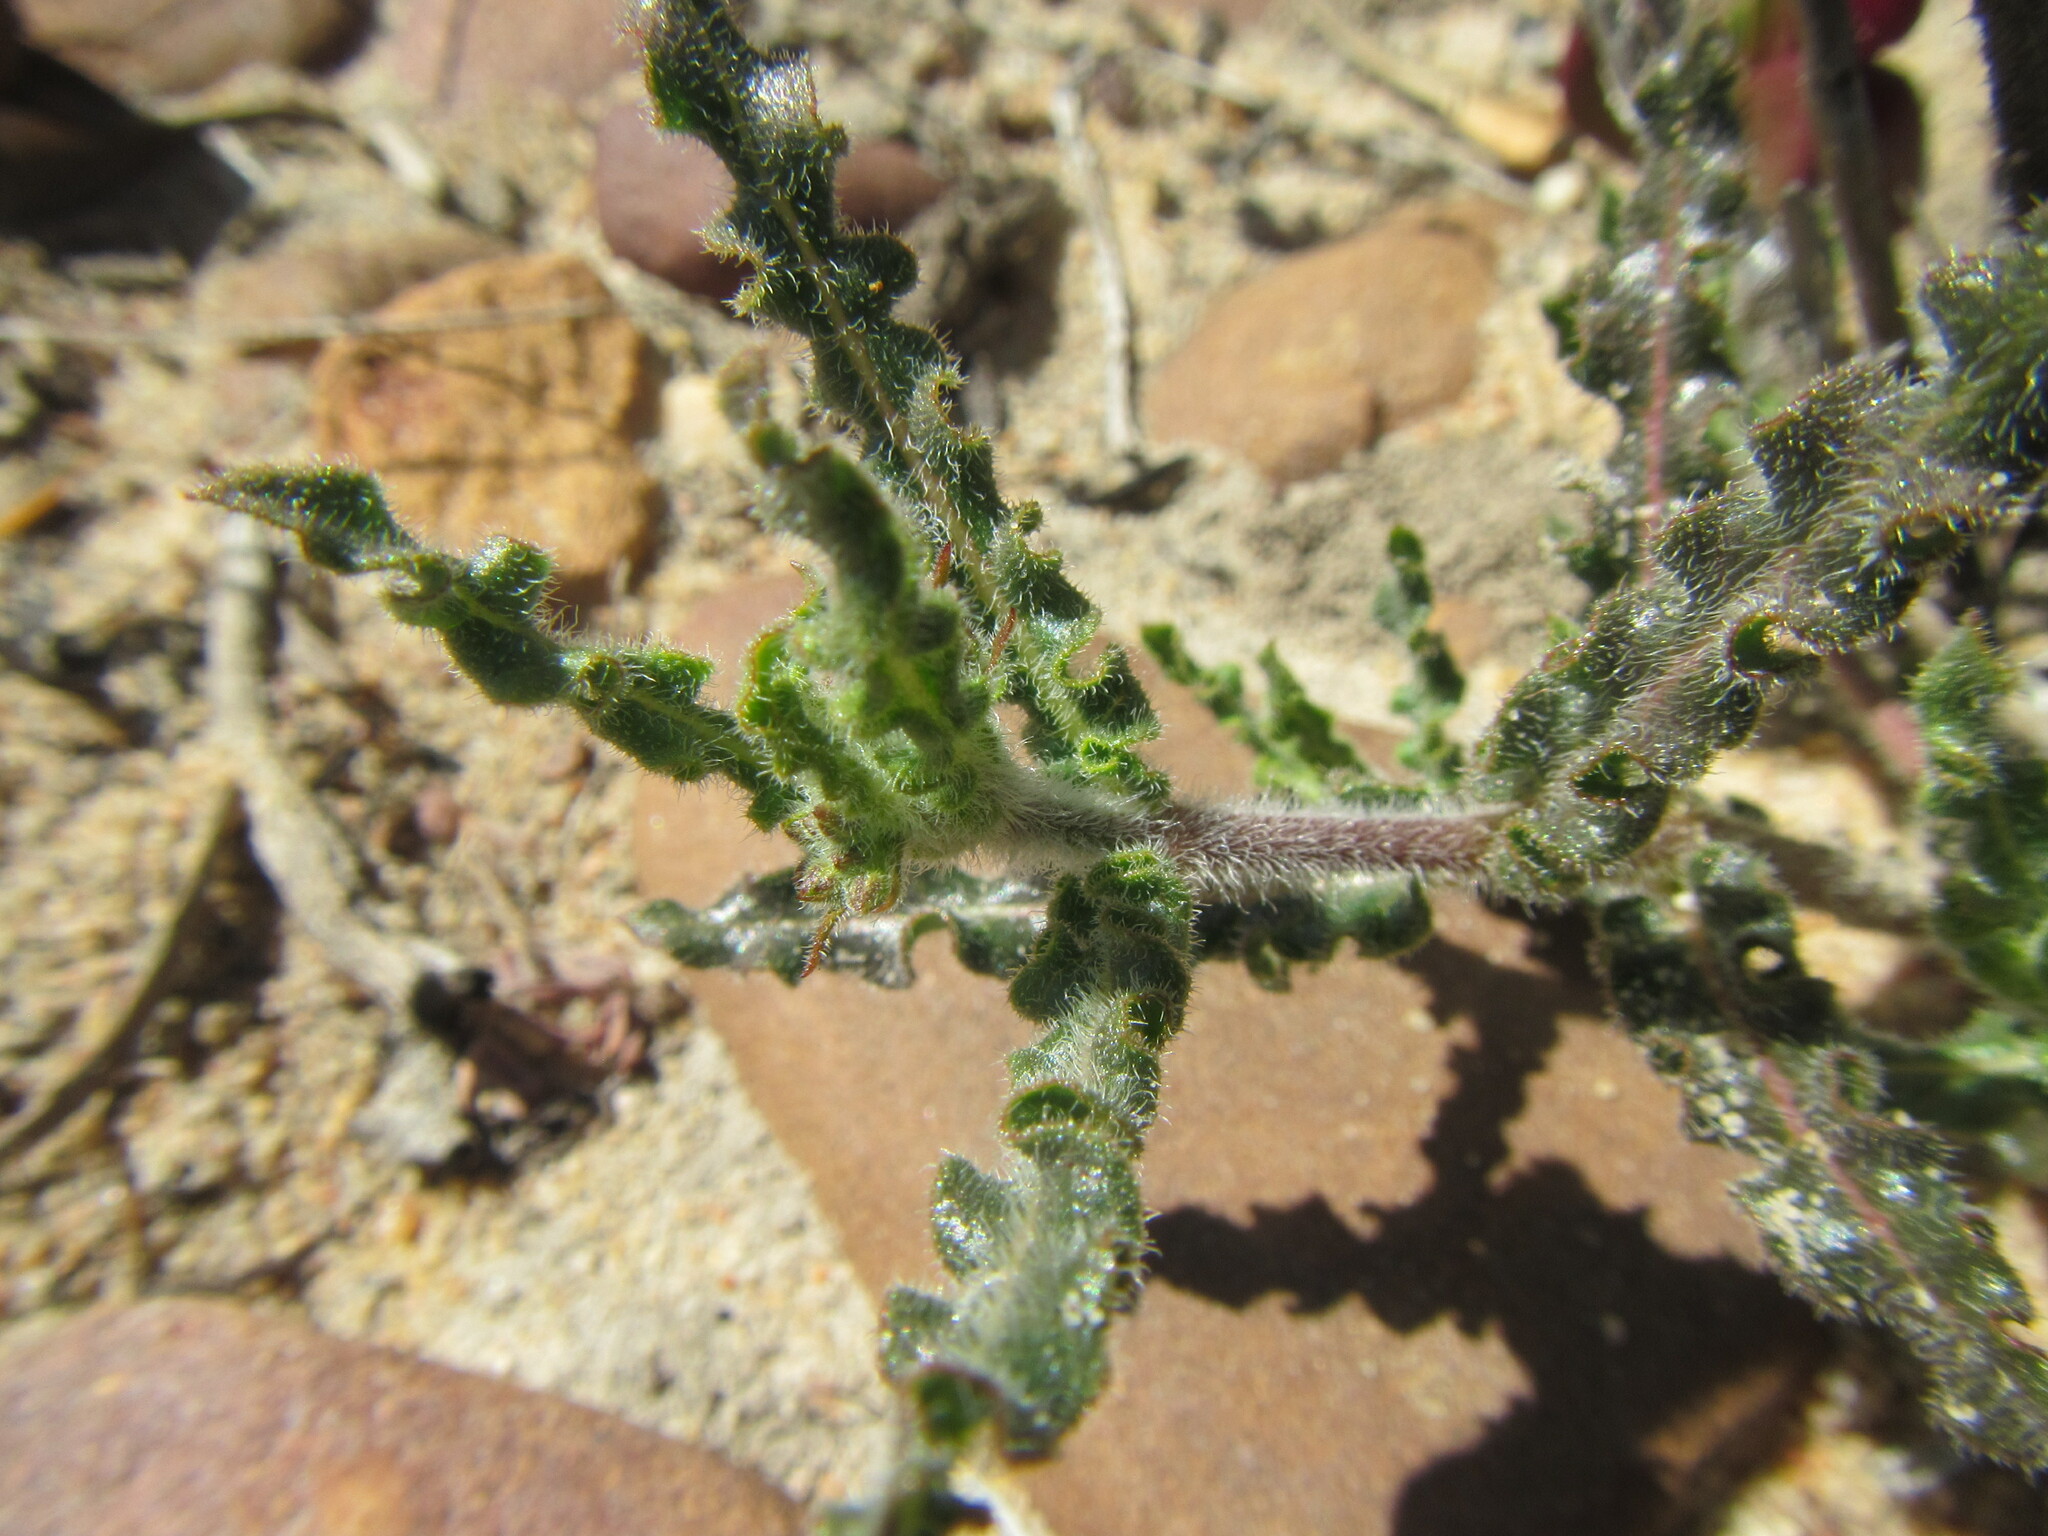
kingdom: Plantae
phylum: Tracheophyta
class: Magnoliopsida
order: Gentianales
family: Apocynaceae
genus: Asclepias
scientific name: Asclepias crispa
